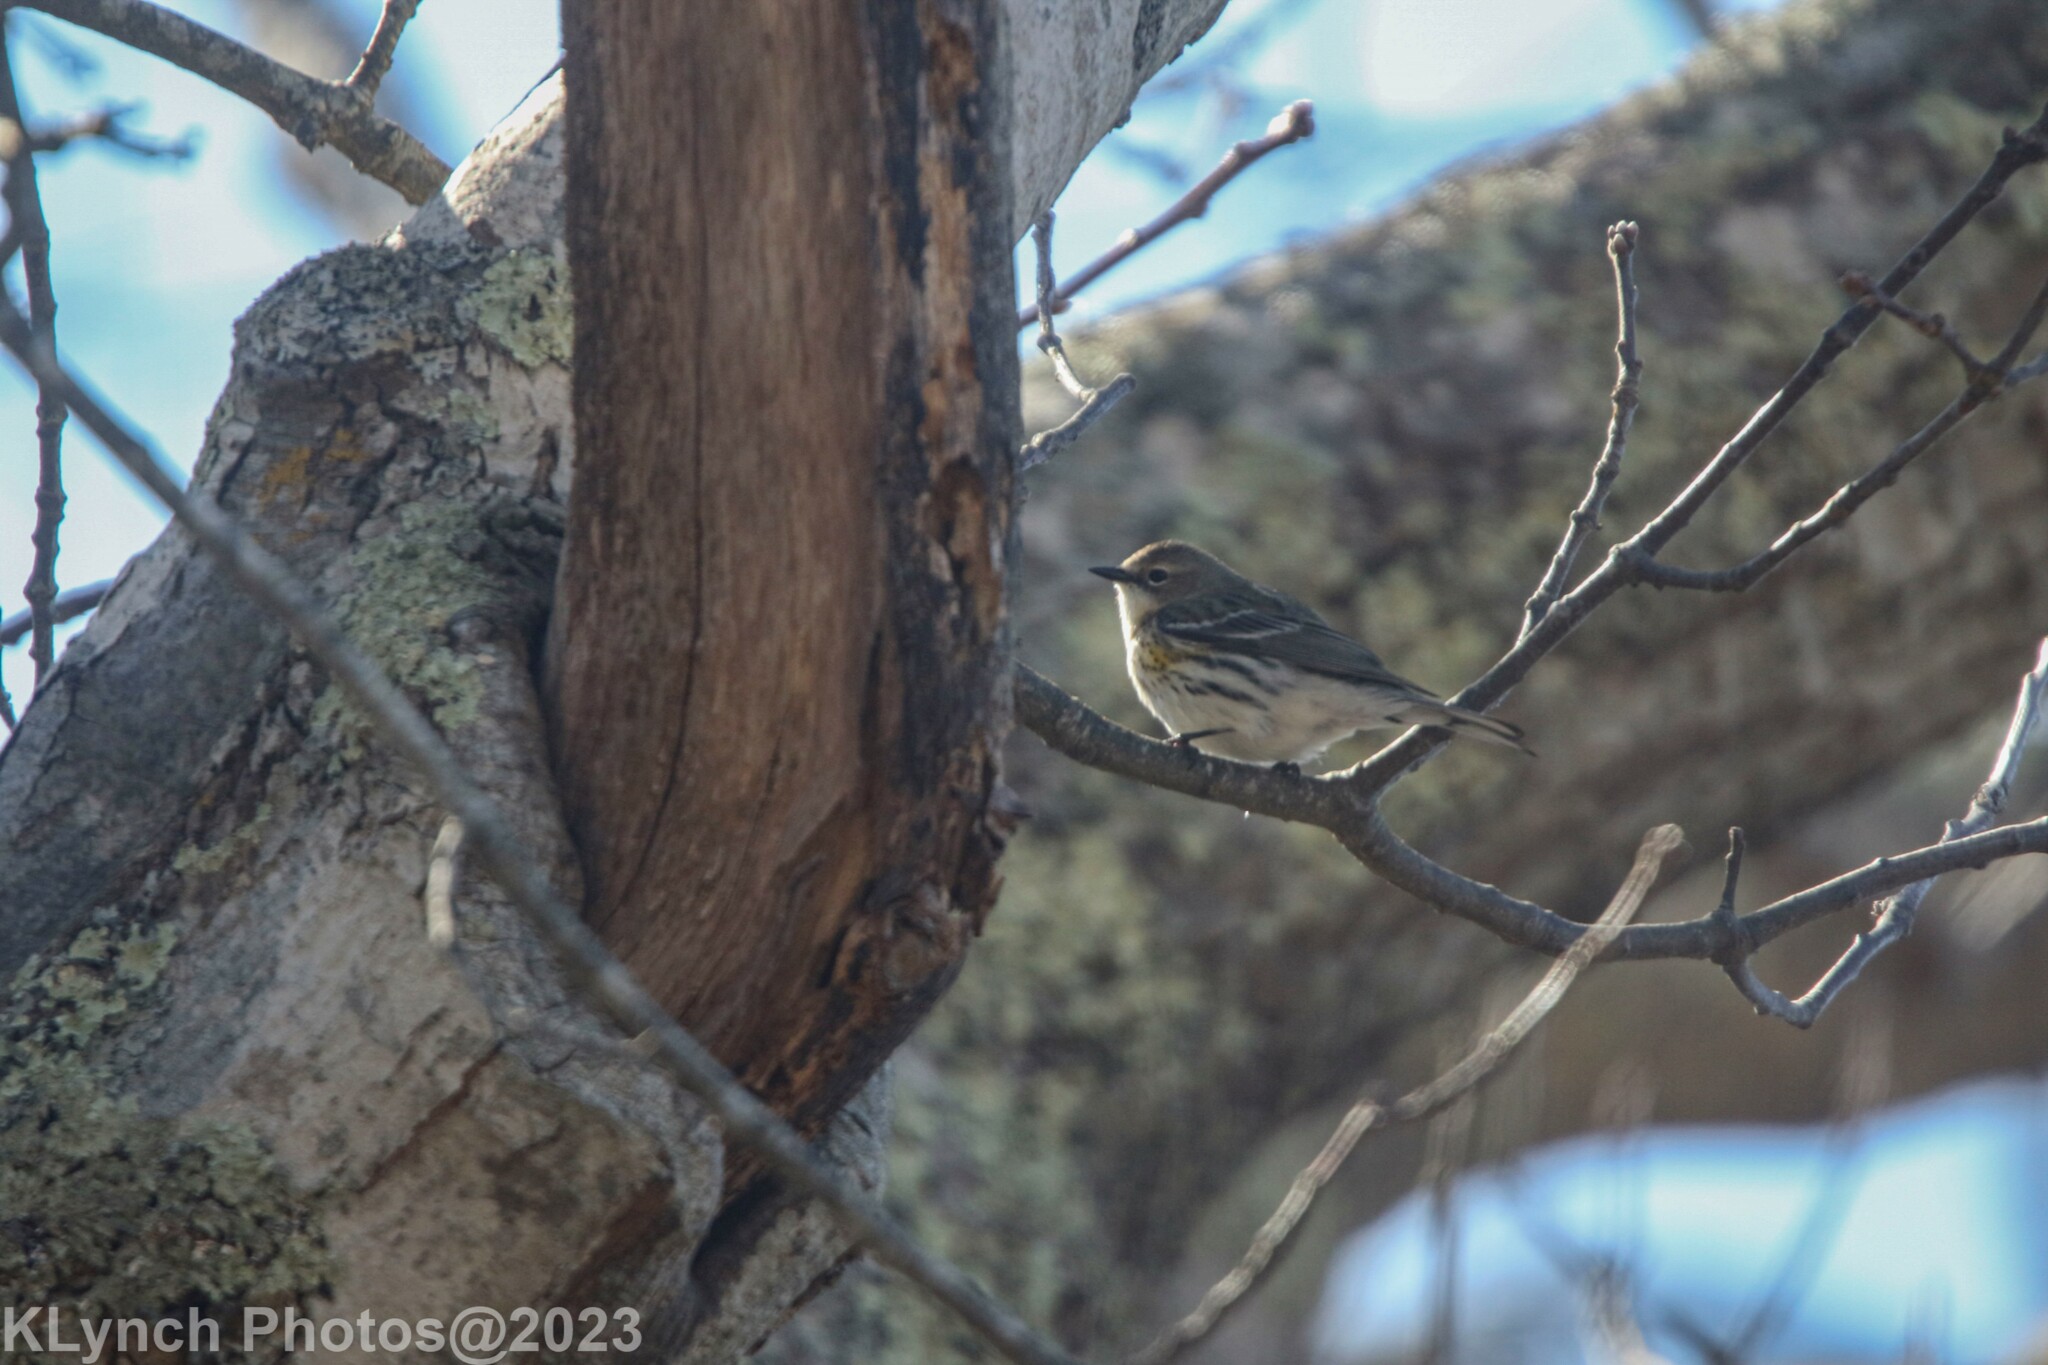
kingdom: Animalia
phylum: Chordata
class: Aves
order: Passeriformes
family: Parulidae
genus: Setophaga
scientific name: Setophaga coronata
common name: Myrtle warbler
